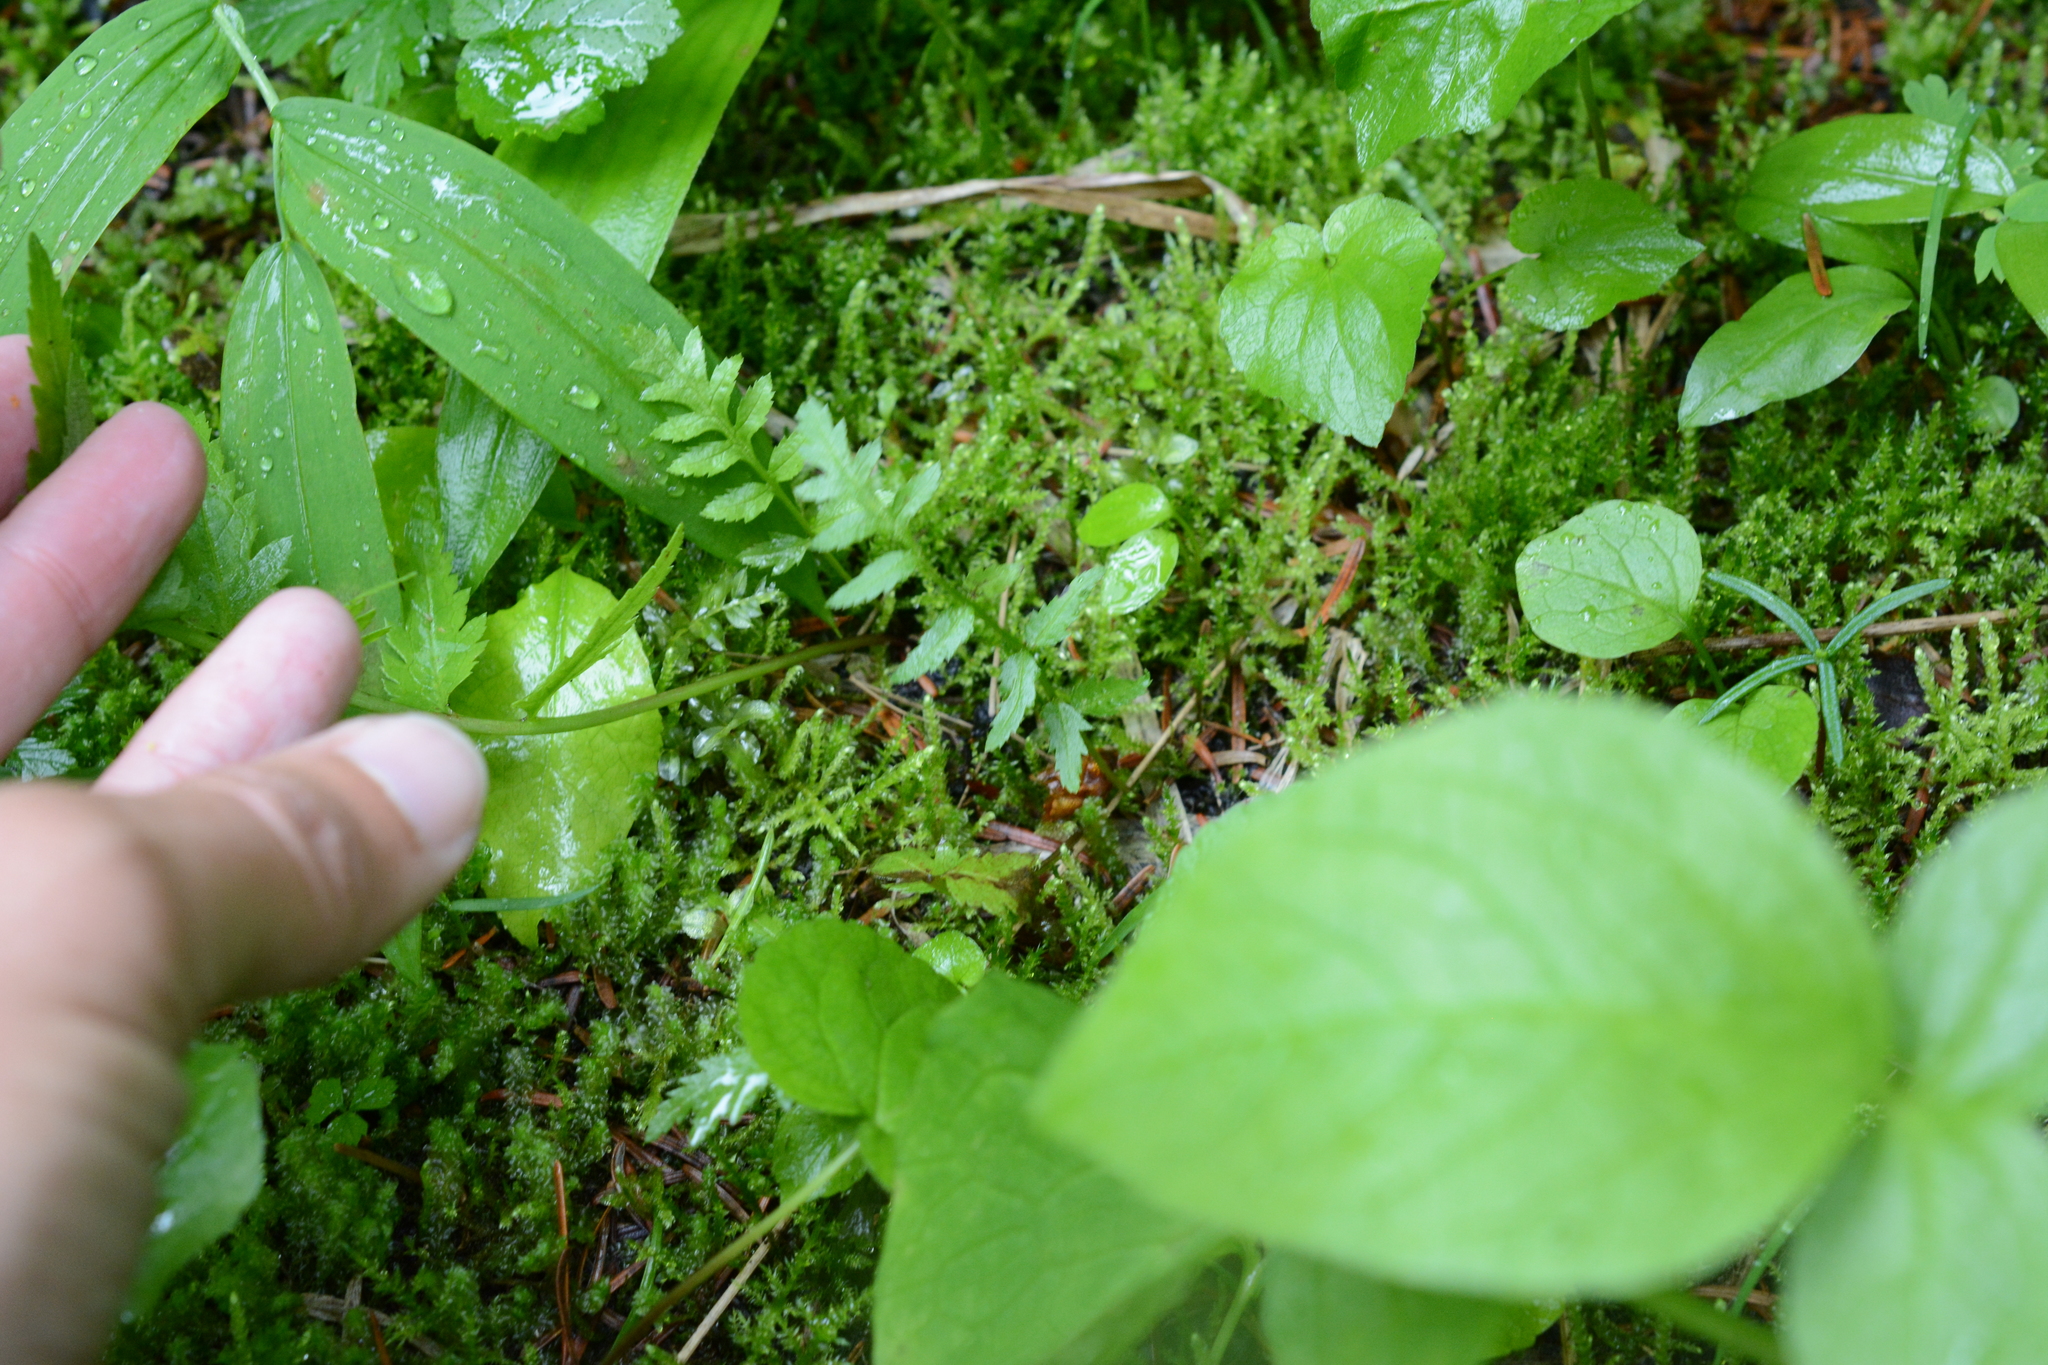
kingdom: Plantae
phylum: Tracheophyta
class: Magnoliopsida
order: Lamiales
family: Orobanchaceae
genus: Pedicularis
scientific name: Pedicularis bracteosa
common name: Bracted lousewort
